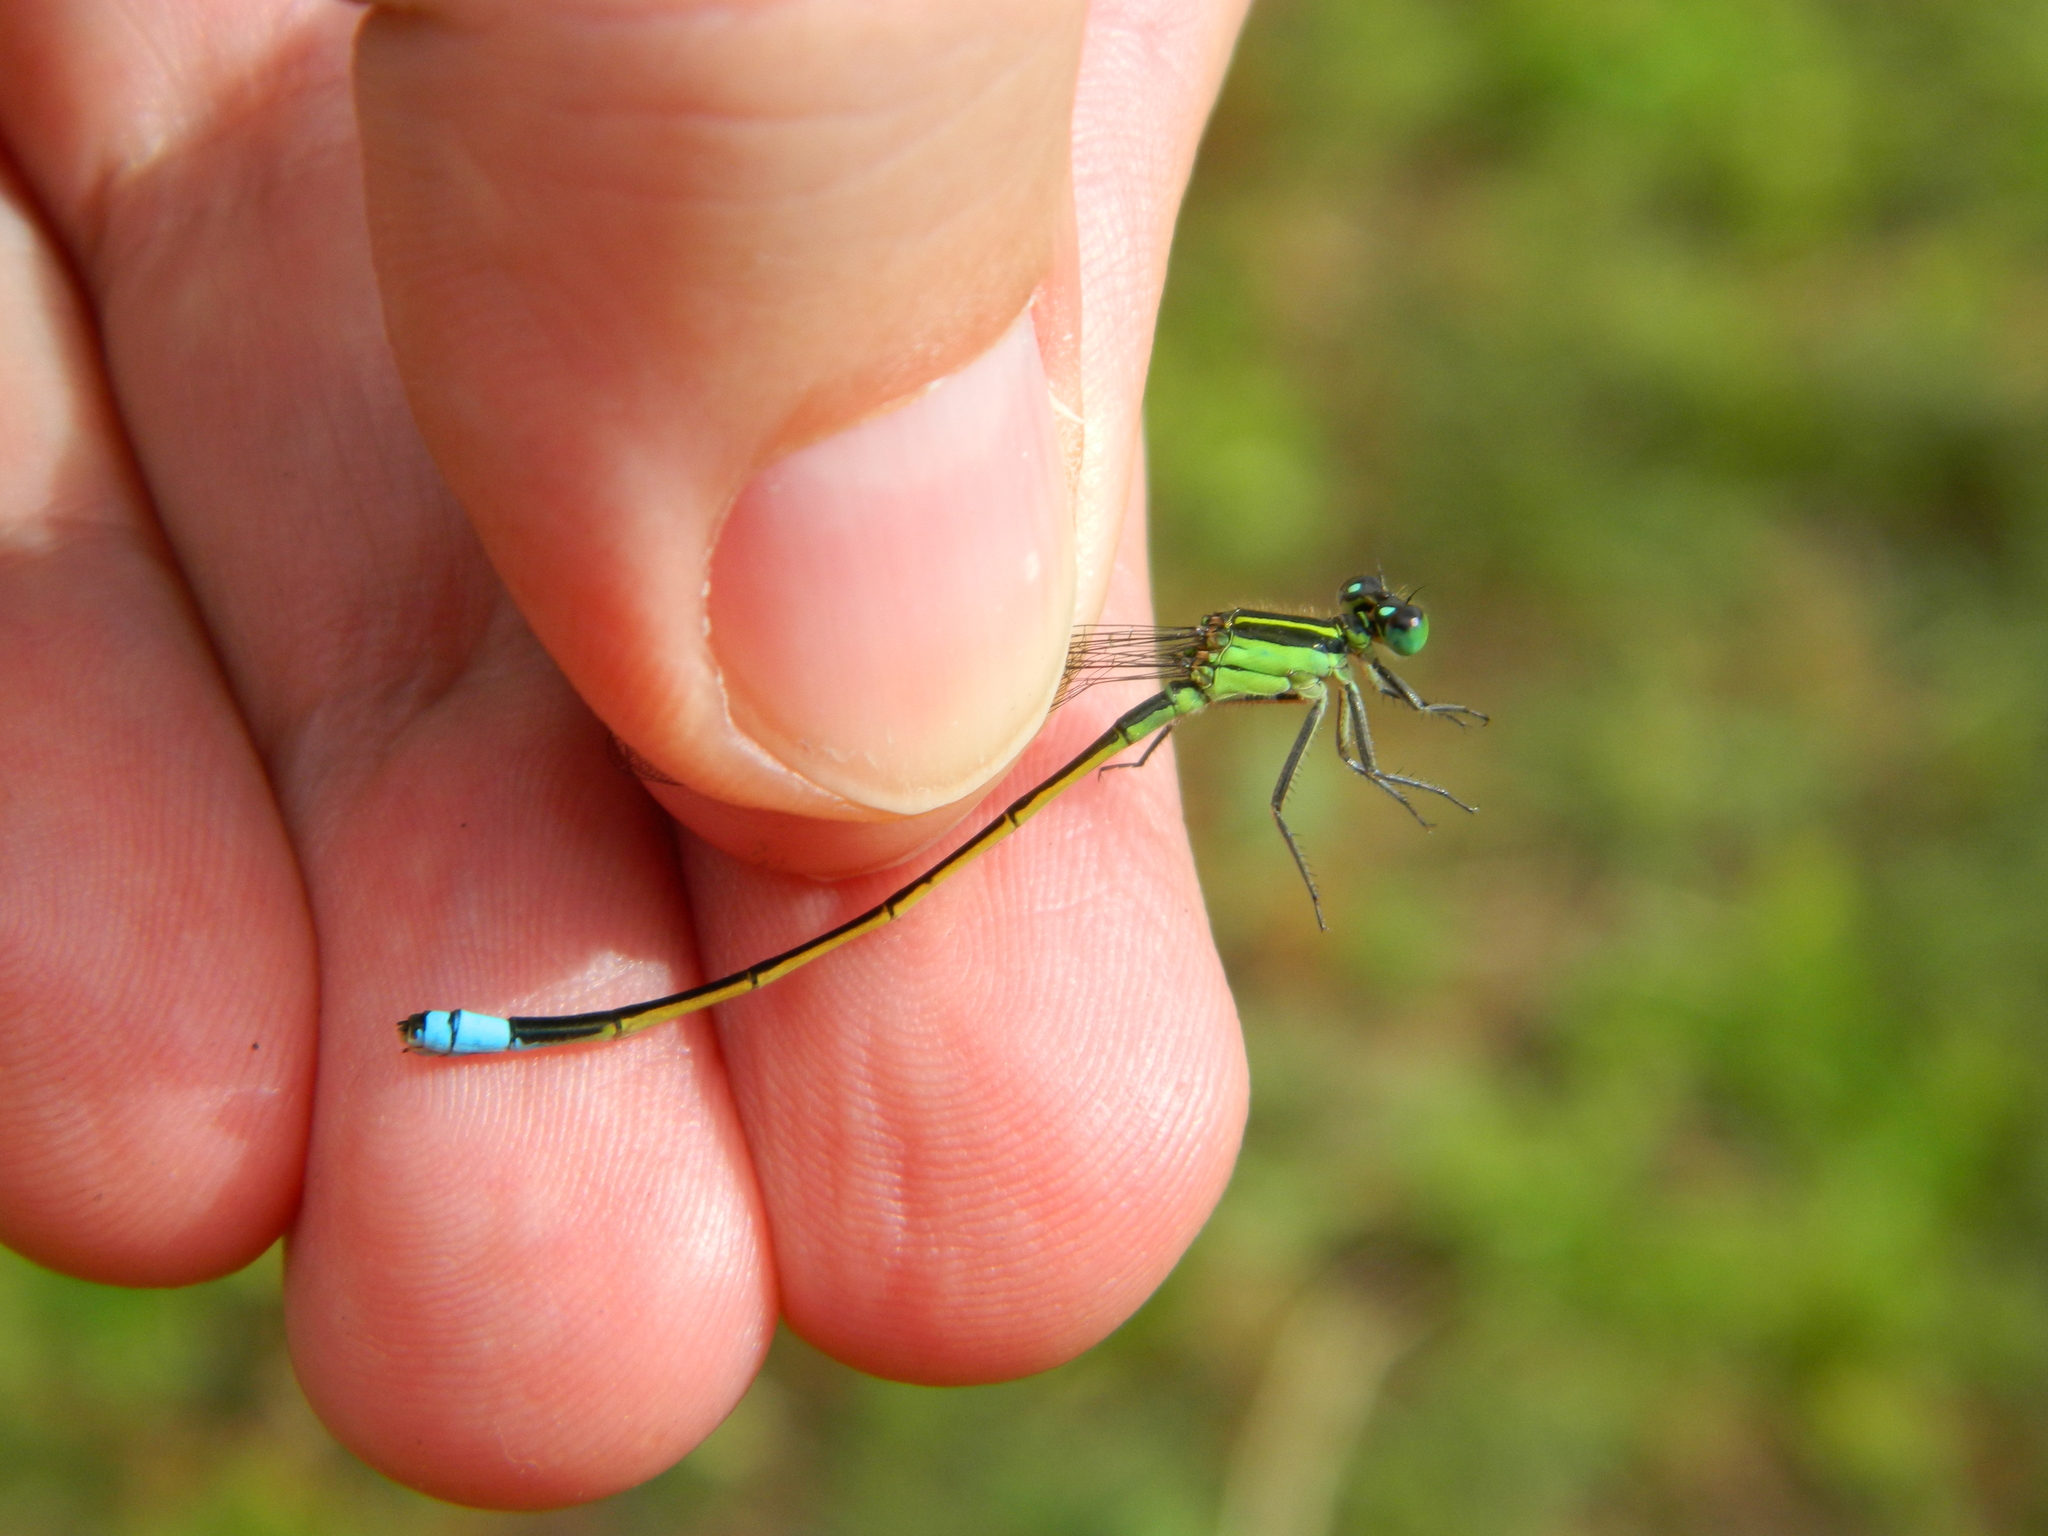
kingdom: Animalia
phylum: Arthropoda
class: Insecta
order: Odonata
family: Coenagrionidae
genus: Ischnura
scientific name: Ischnura ramburii
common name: Rambur's forktail
